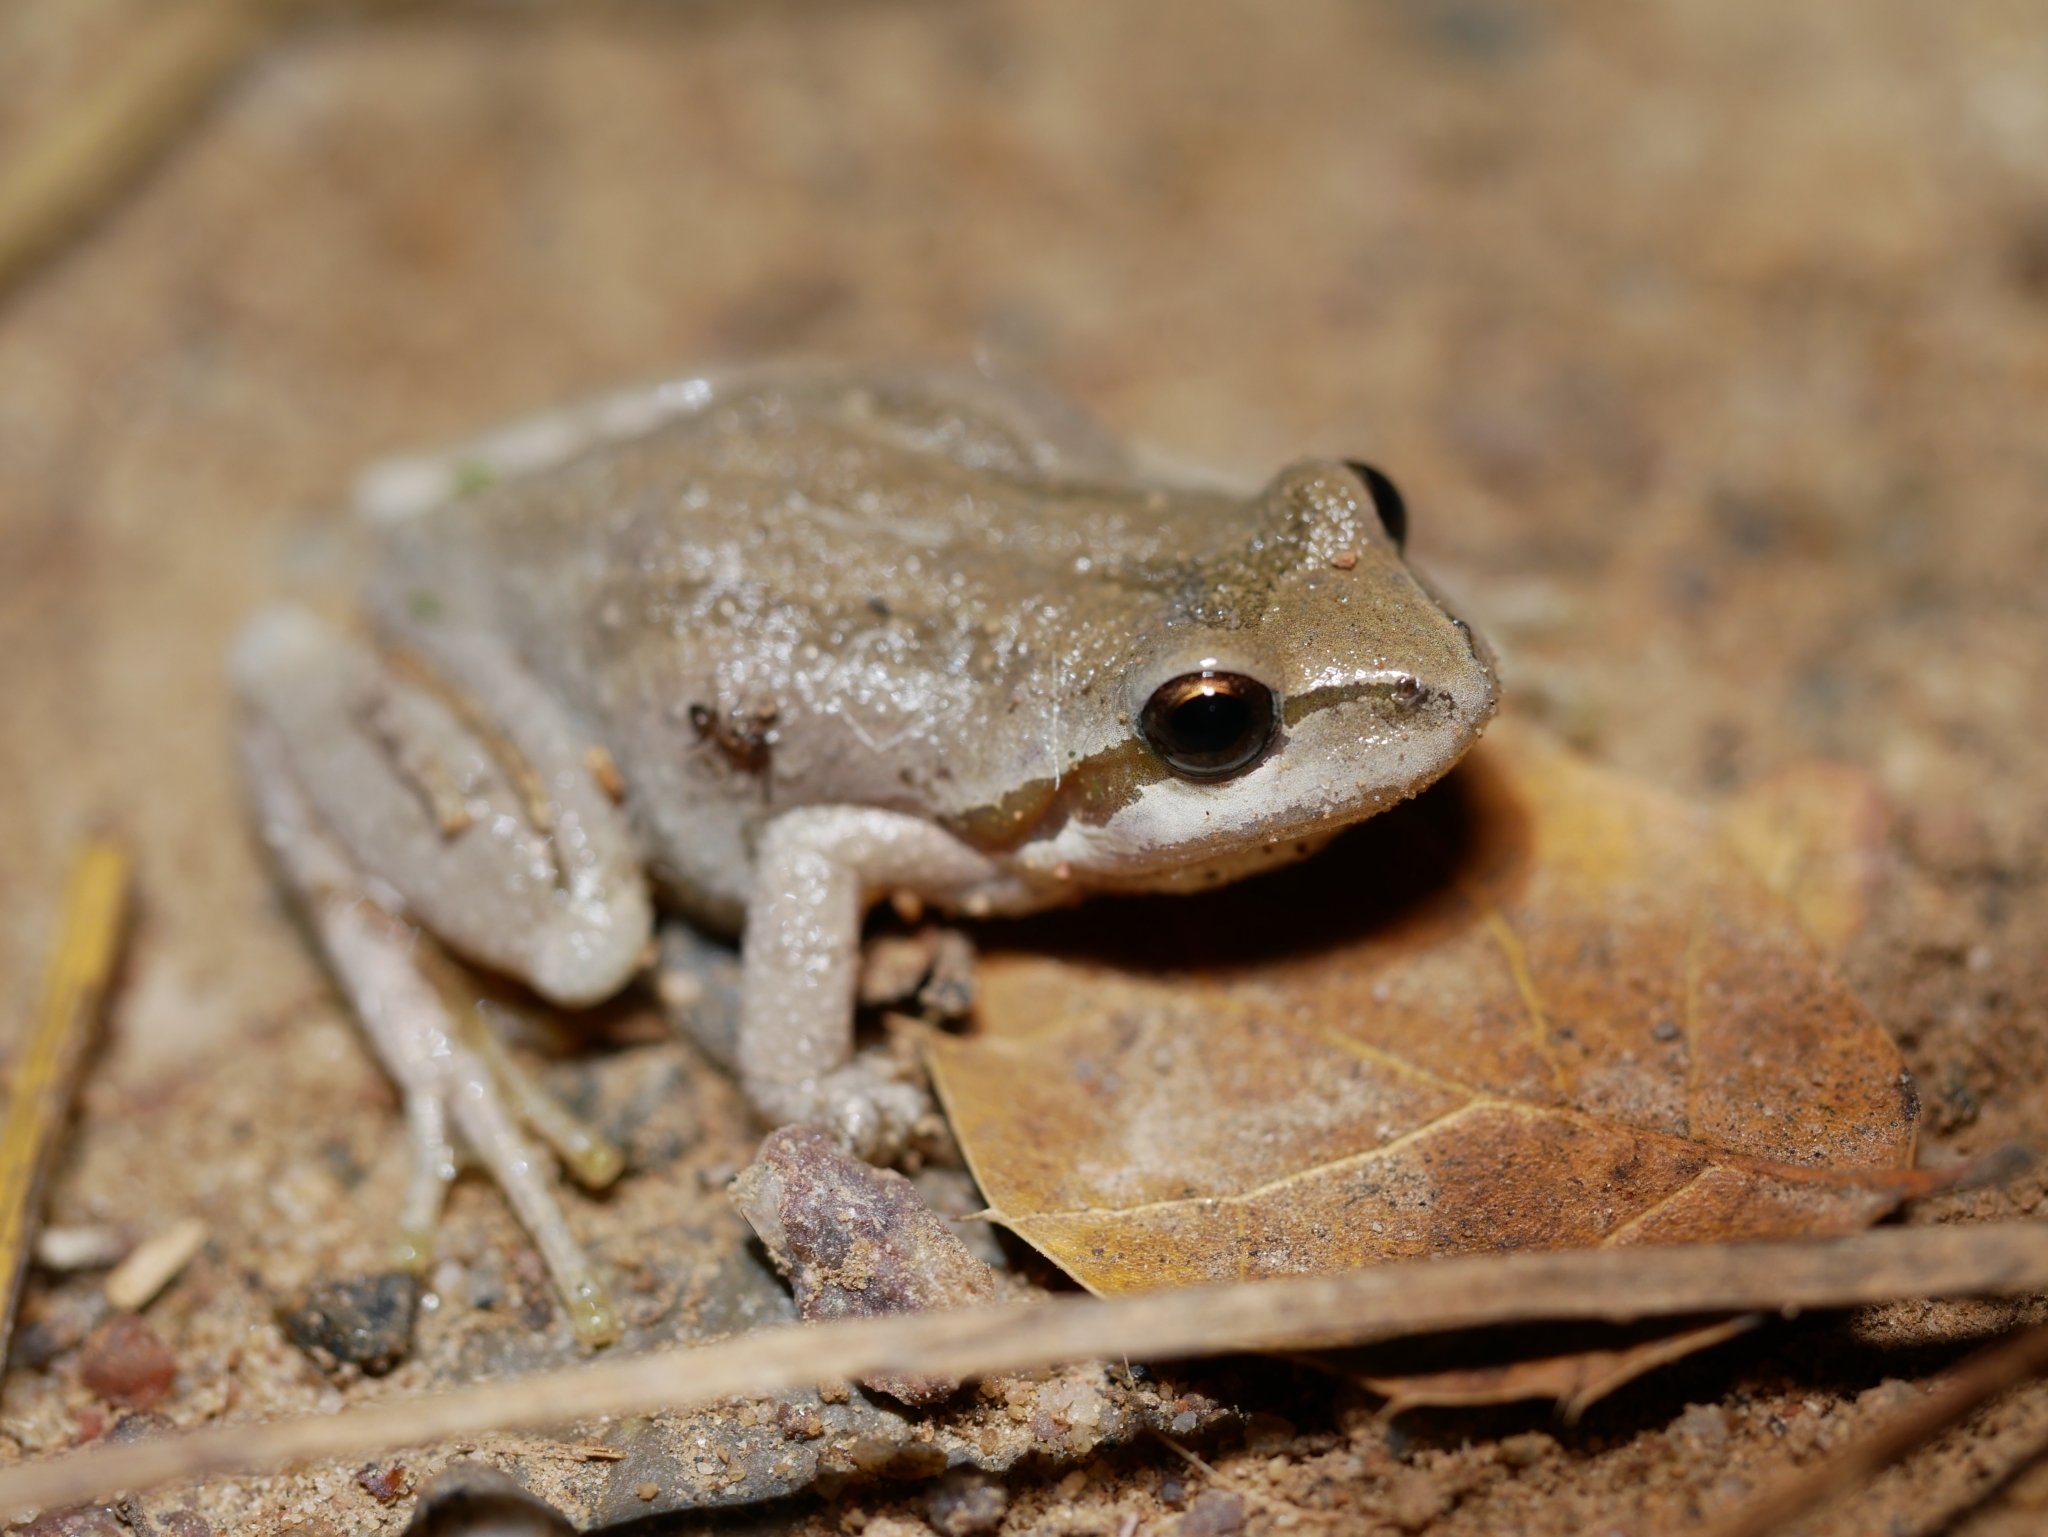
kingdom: Animalia
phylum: Chordata
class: Amphibia
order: Anura
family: Hylidae
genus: Pseudacris
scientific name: Pseudacris regilla
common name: Pacific chorus frog
